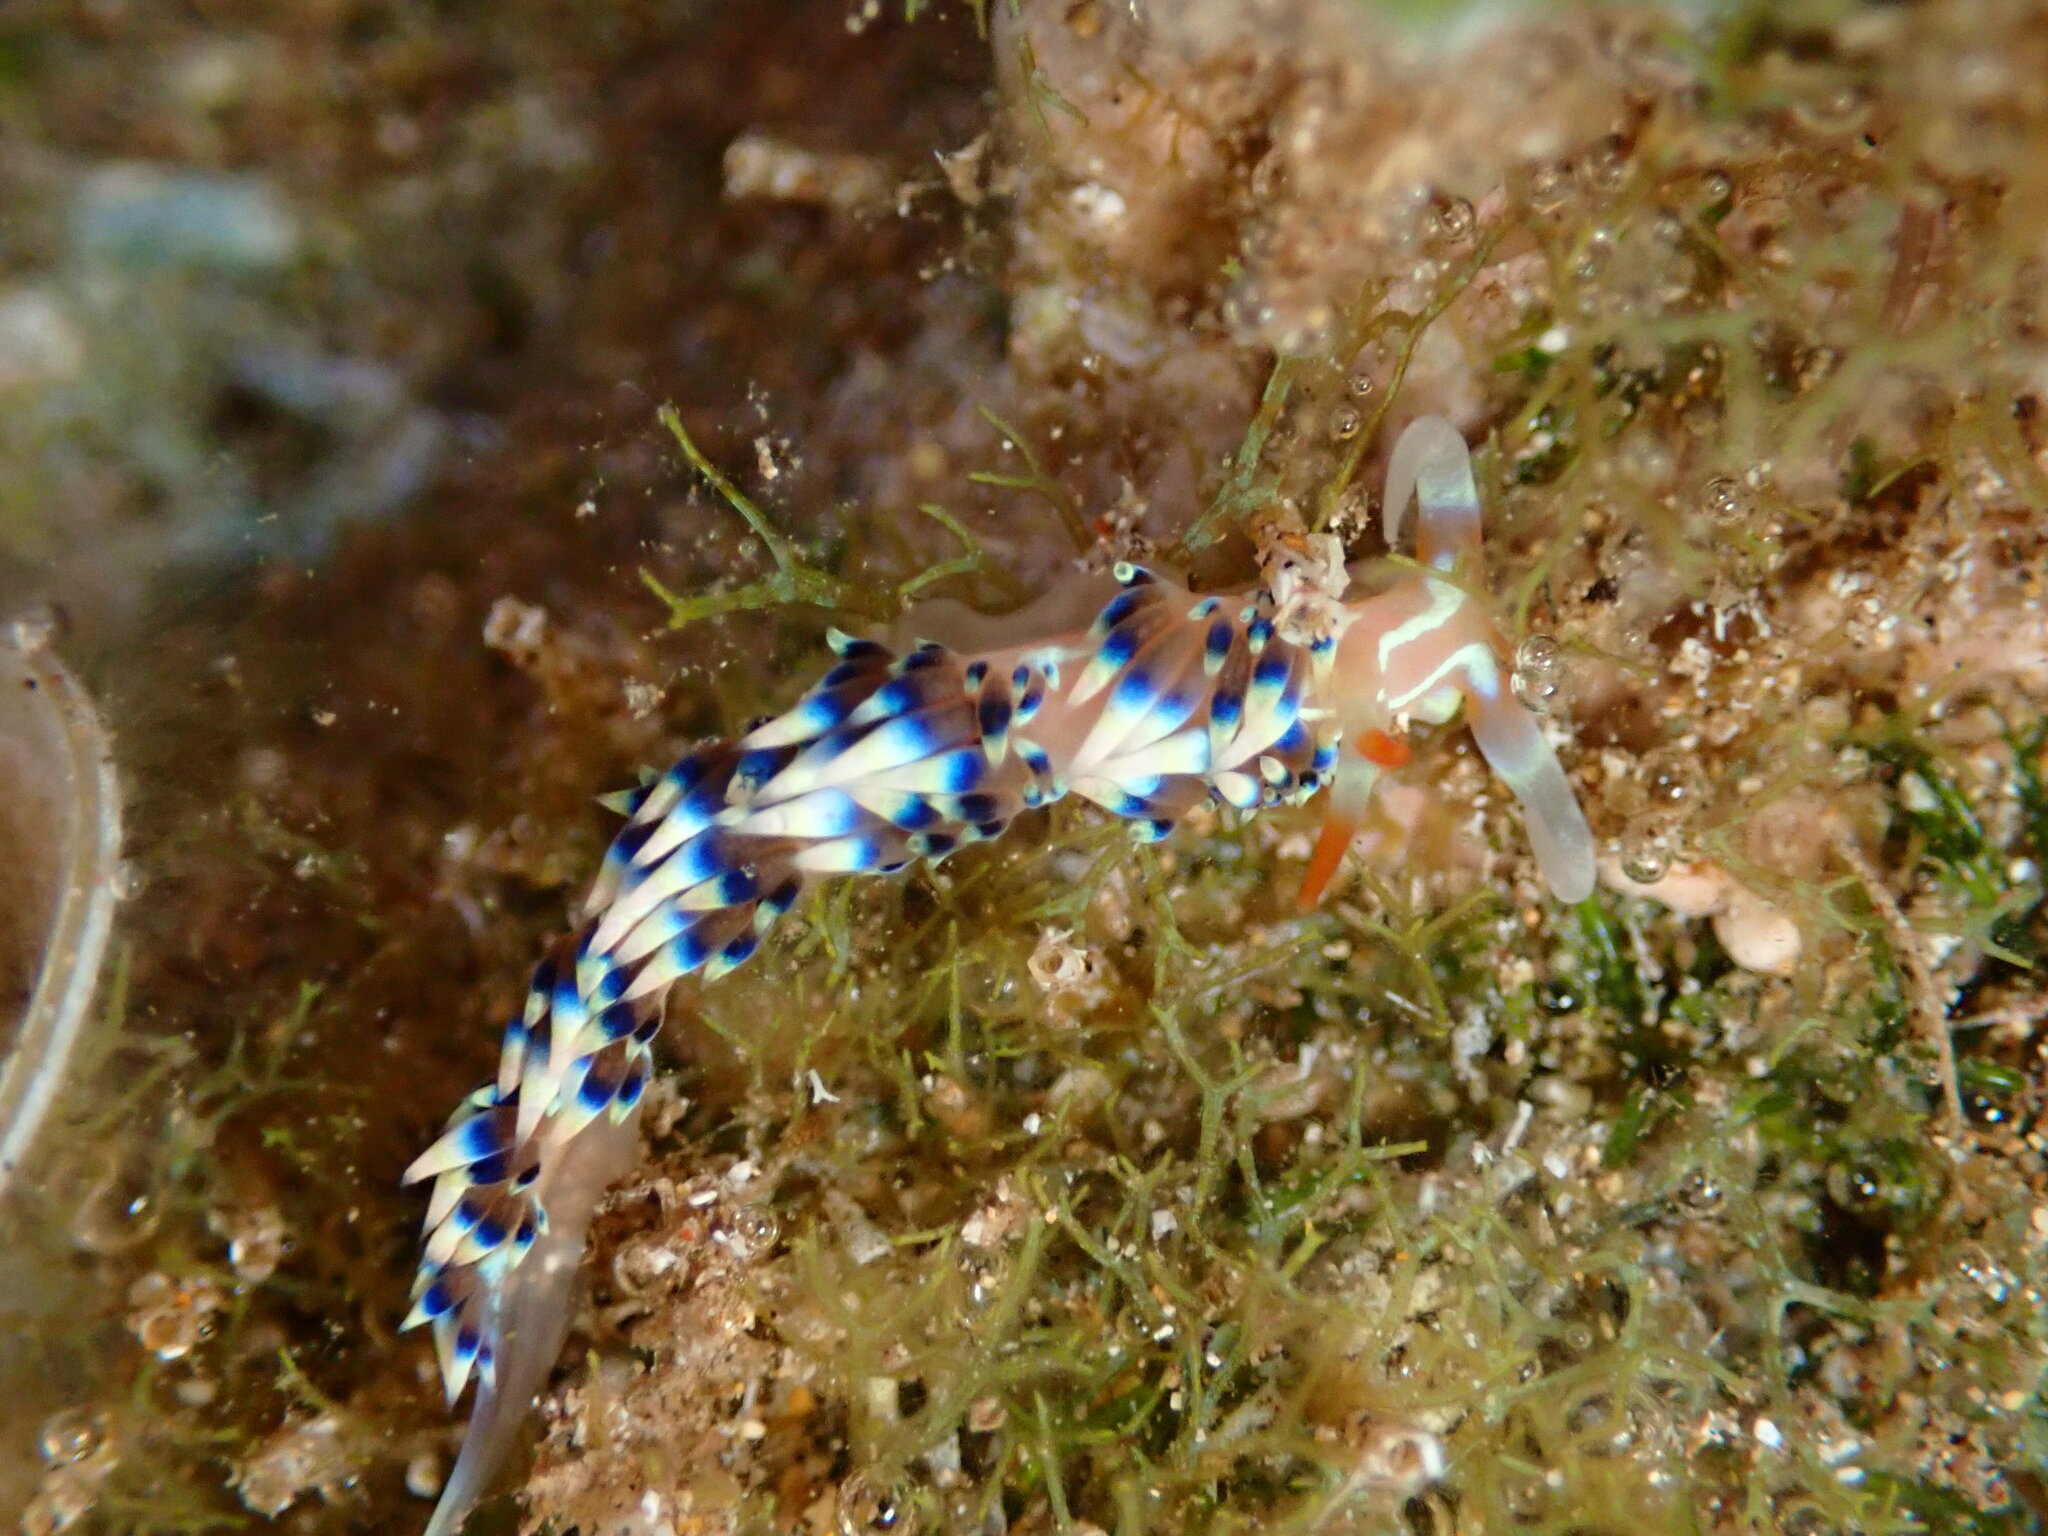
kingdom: Animalia
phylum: Mollusca
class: Gastropoda
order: Nudibranchia
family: Facelinidae
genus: Caloria
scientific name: Caloria indica
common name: Sea slug
